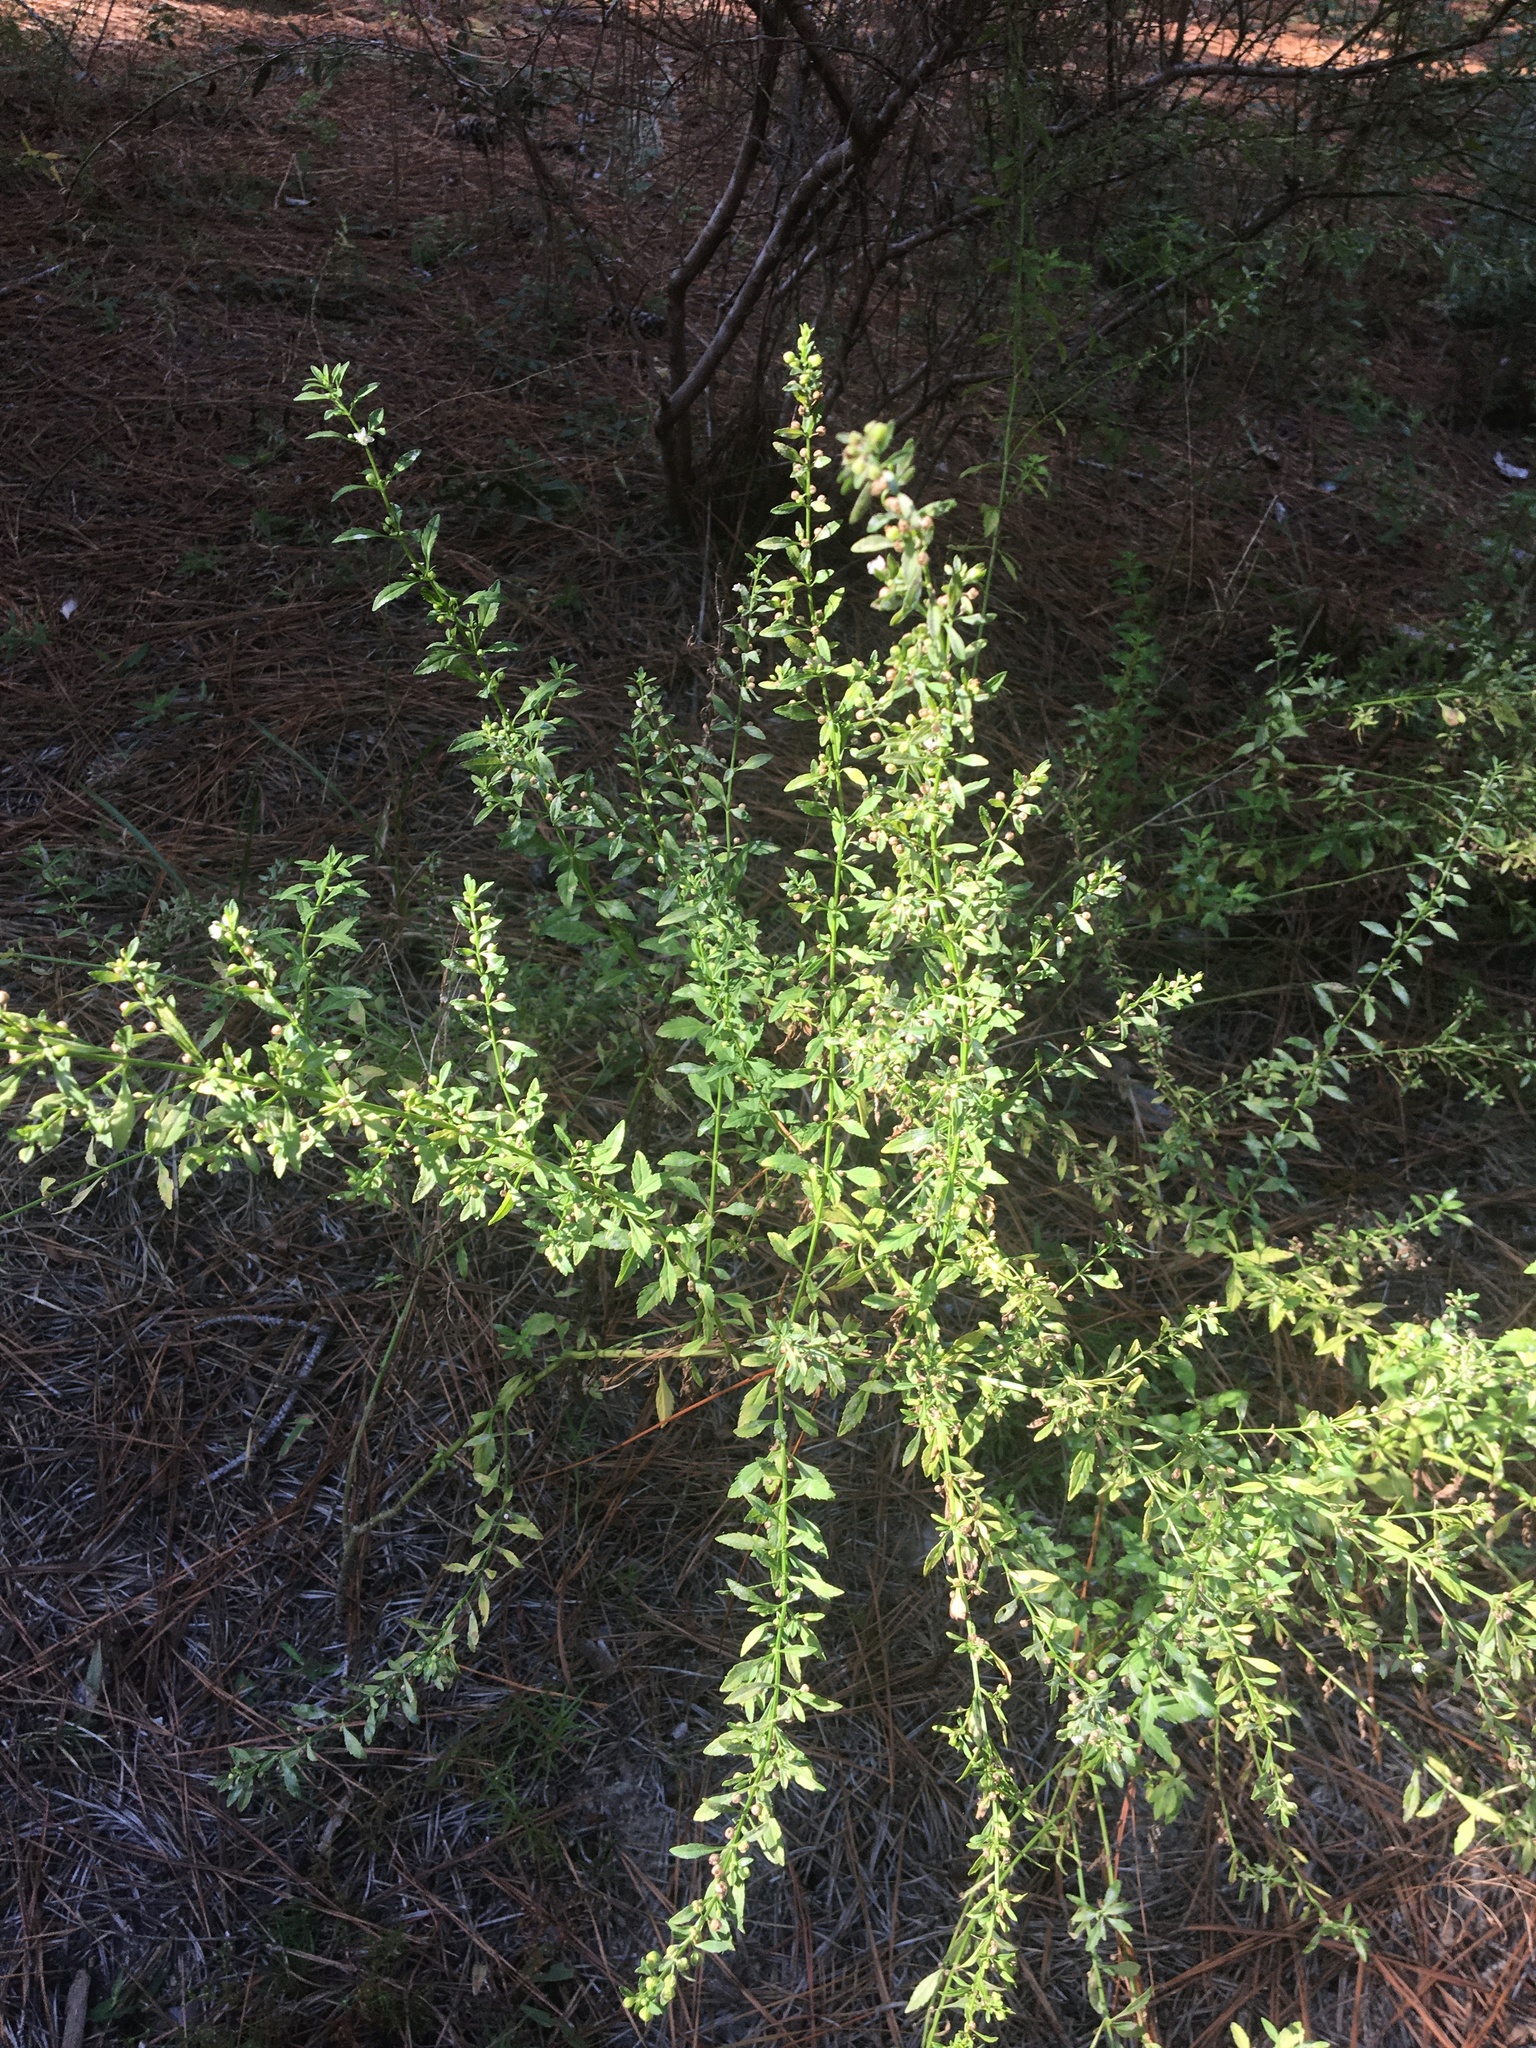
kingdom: Plantae
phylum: Tracheophyta
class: Magnoliopsida
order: Lamiales
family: Plantaginaceae
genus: Scoparia
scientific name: Scoparia dulcis
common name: Scoparia-weed
